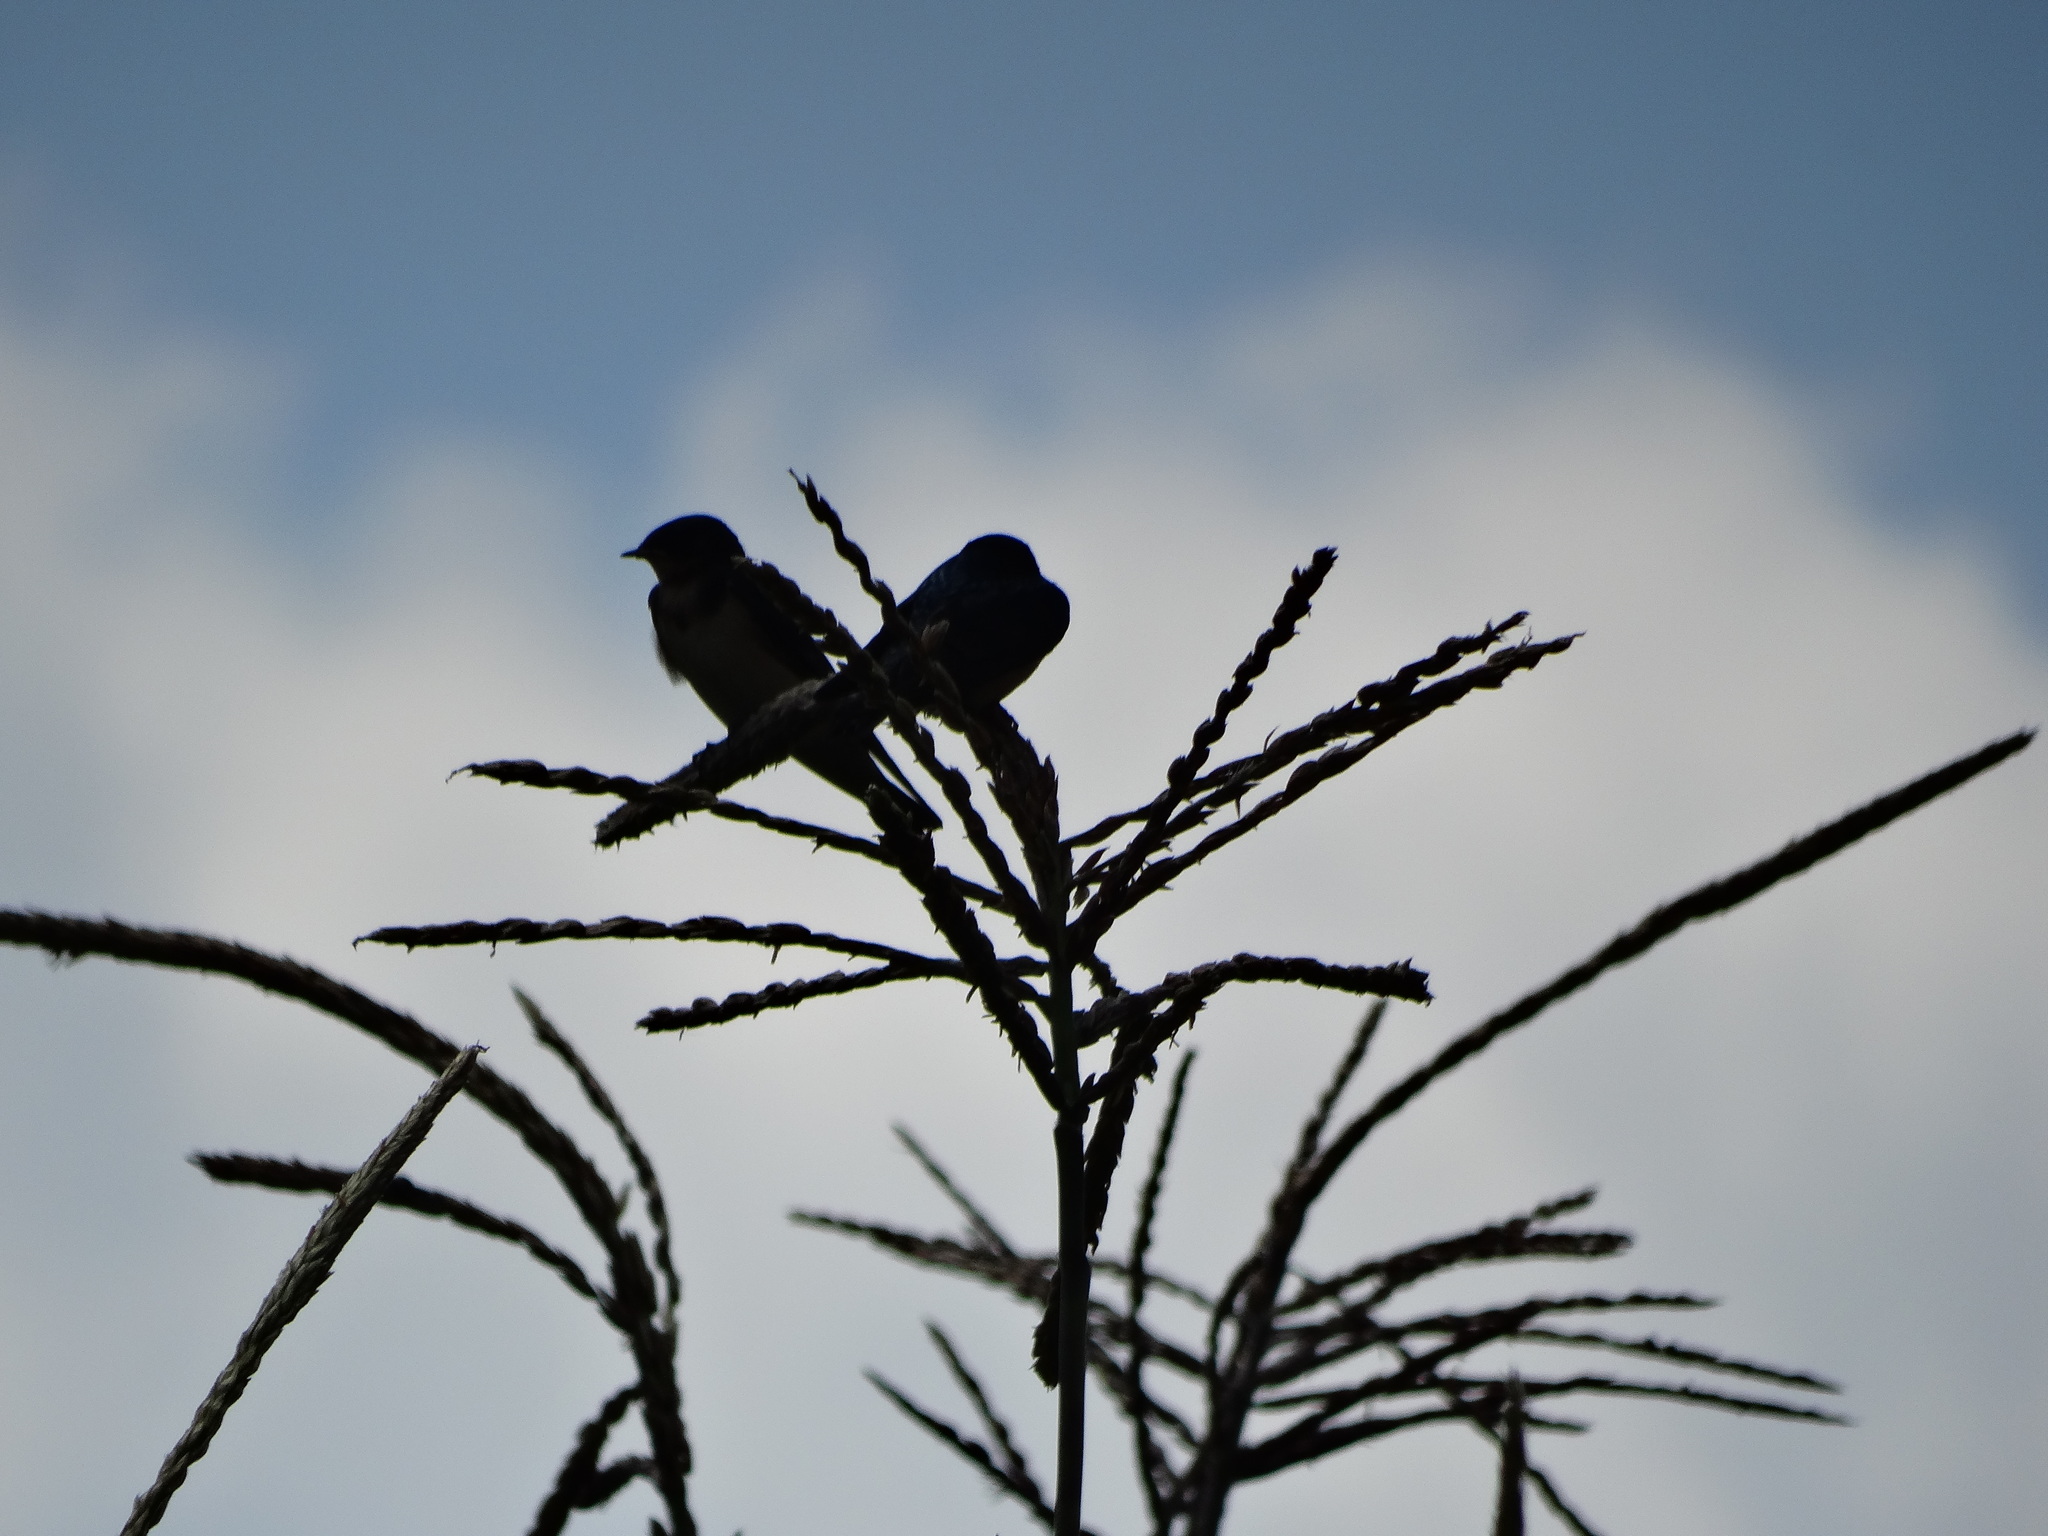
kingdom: Animalia
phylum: Chordata
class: Aves
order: Passeriformes
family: Hirundinidae
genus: Hirundo
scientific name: Hirundo rustica
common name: Barn swallow
